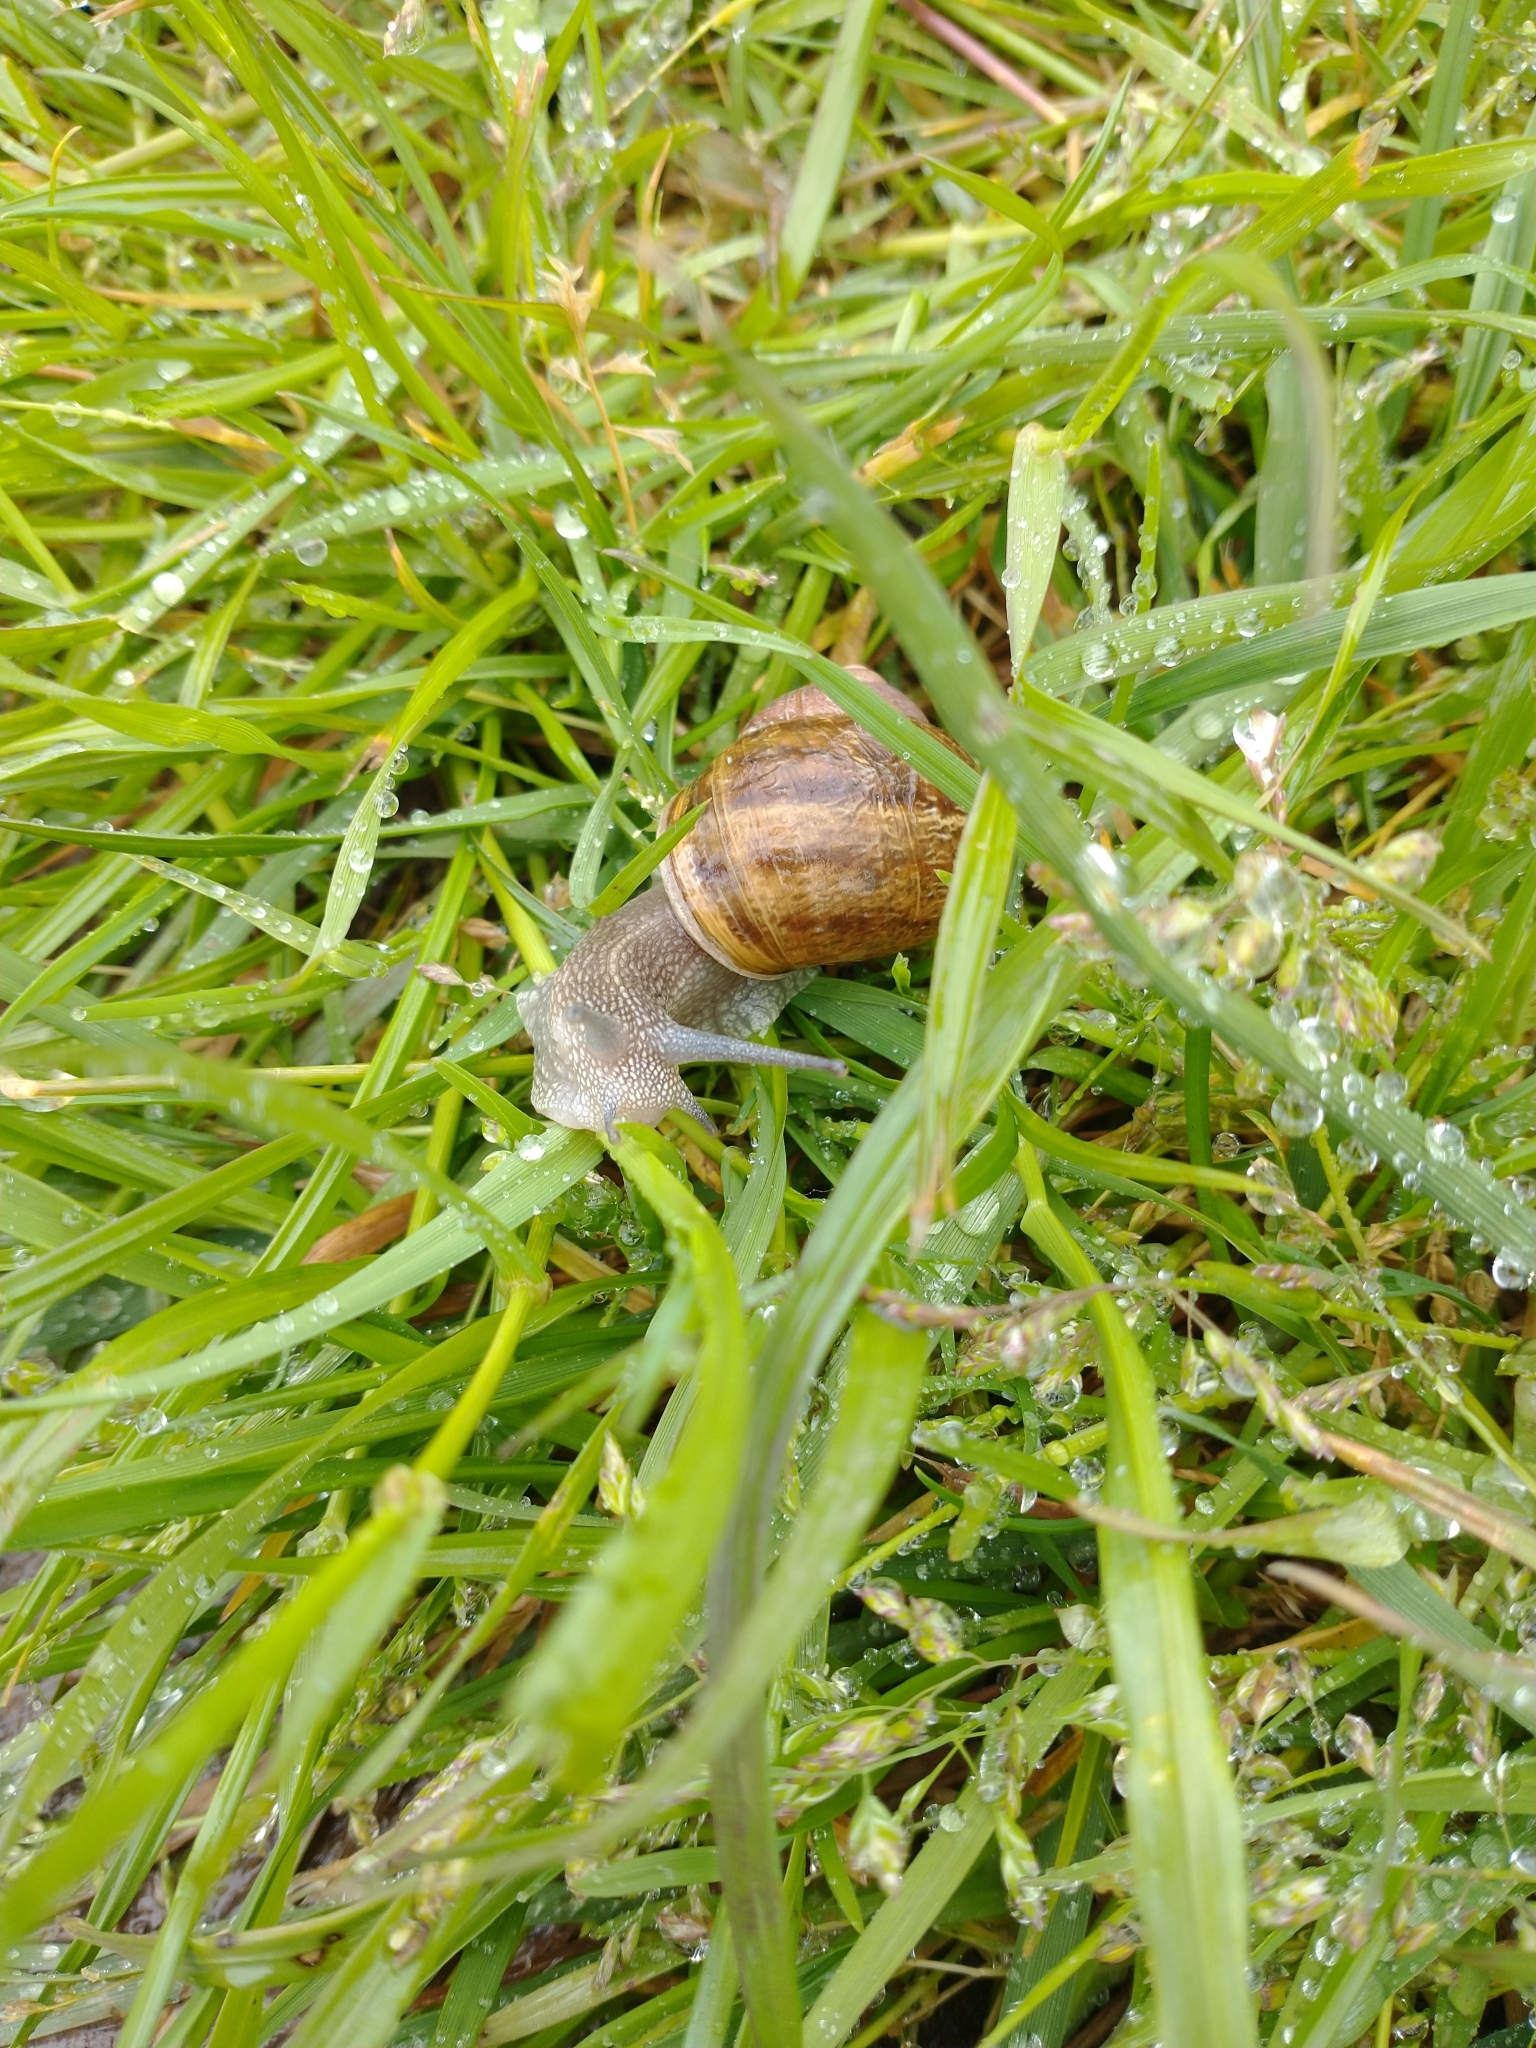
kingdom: Animalia
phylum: Mollusca
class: Gastropoda
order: Stylommatophora
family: Helicidae
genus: Cornu
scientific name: Cornu aspersum
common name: Brown garden snail
